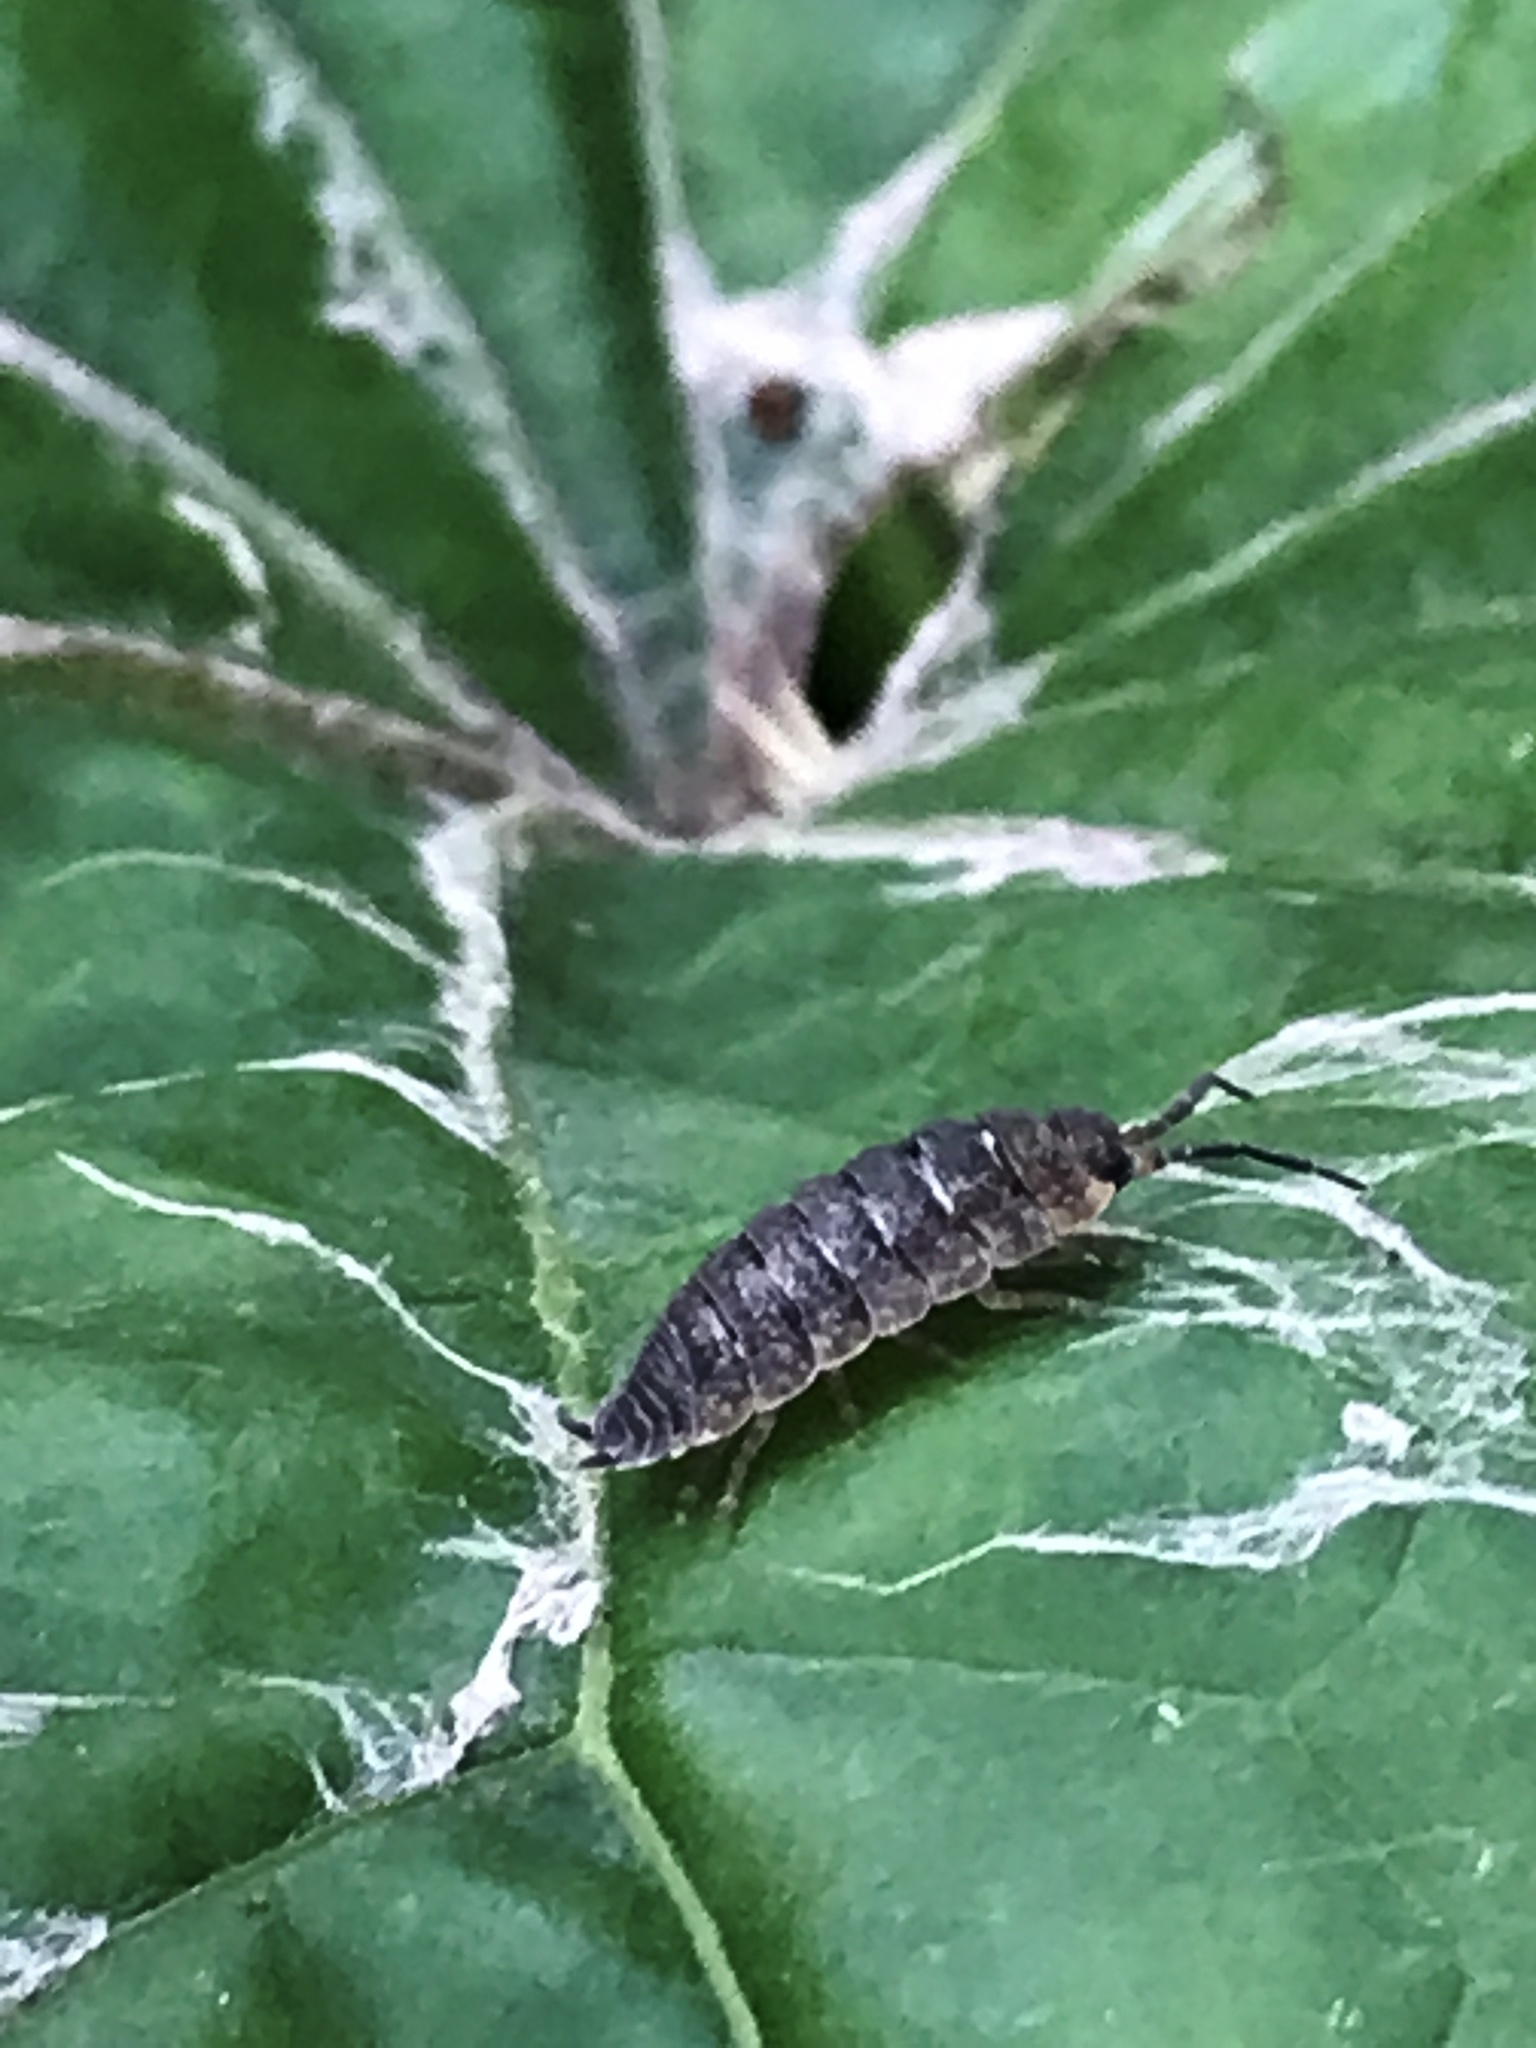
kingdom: Animalia
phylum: Arthropoda
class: Malacostraca
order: Isopoda
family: Porcellionidae
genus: Porcellio
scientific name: Porcellio scaber
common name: Common rough woodlouse
